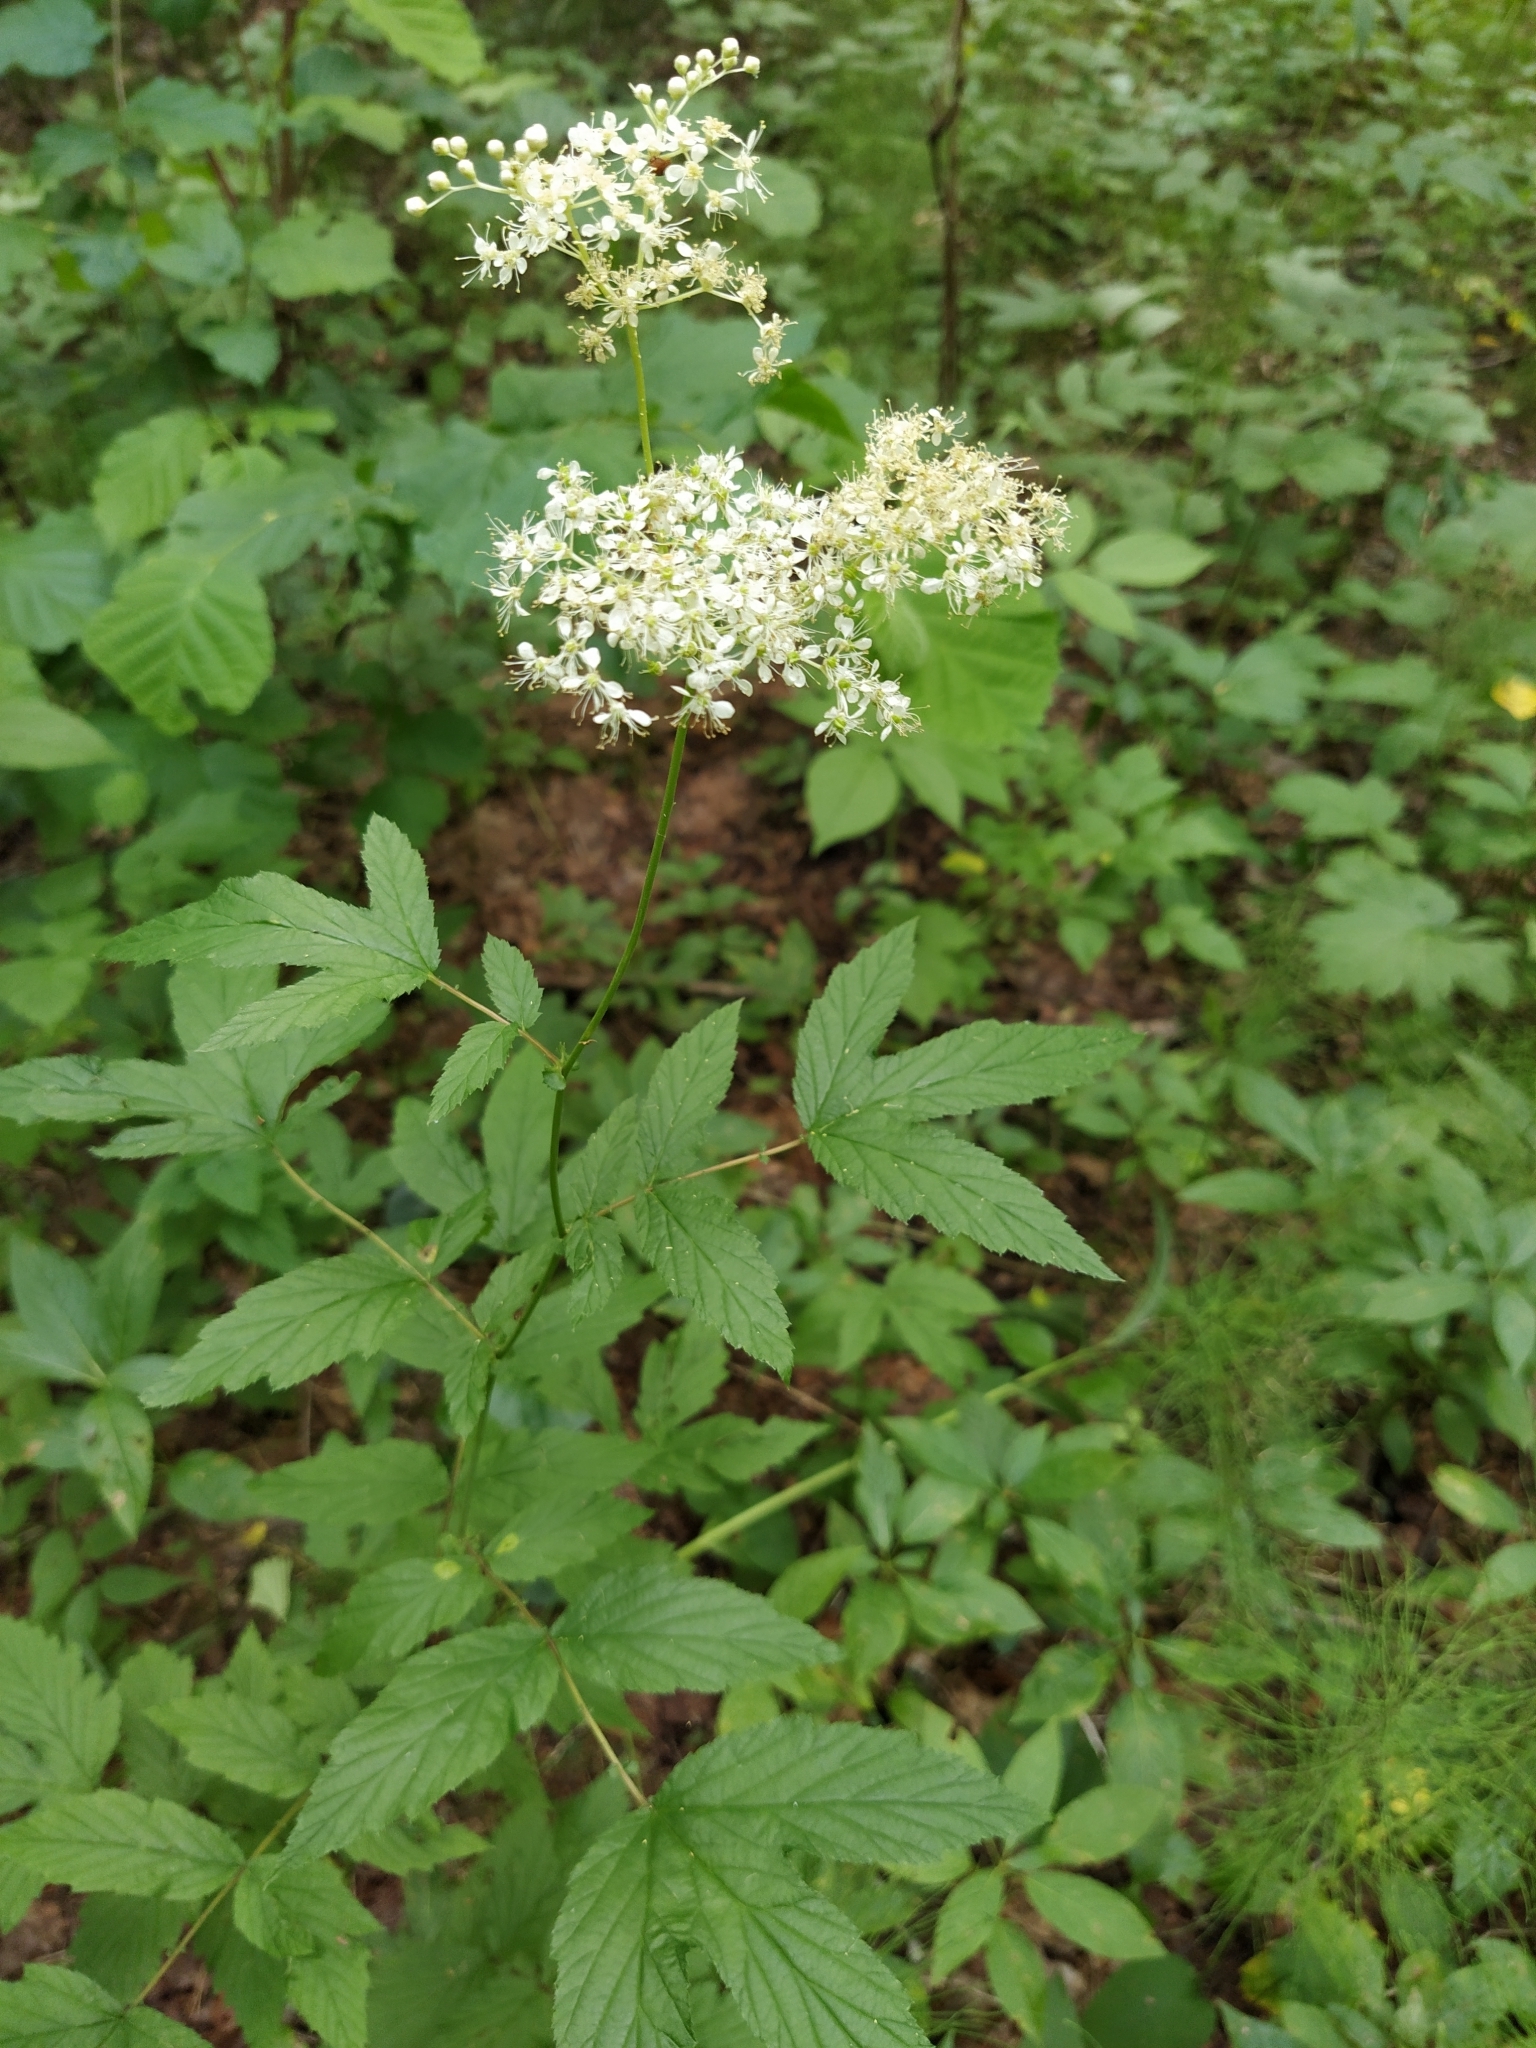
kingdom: Plantae
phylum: Tracheophyta
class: Magnoliopsida
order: Rosales
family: Rosaceae
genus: Filipendula
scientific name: Filipendula ulmaria
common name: Meadowsweet
